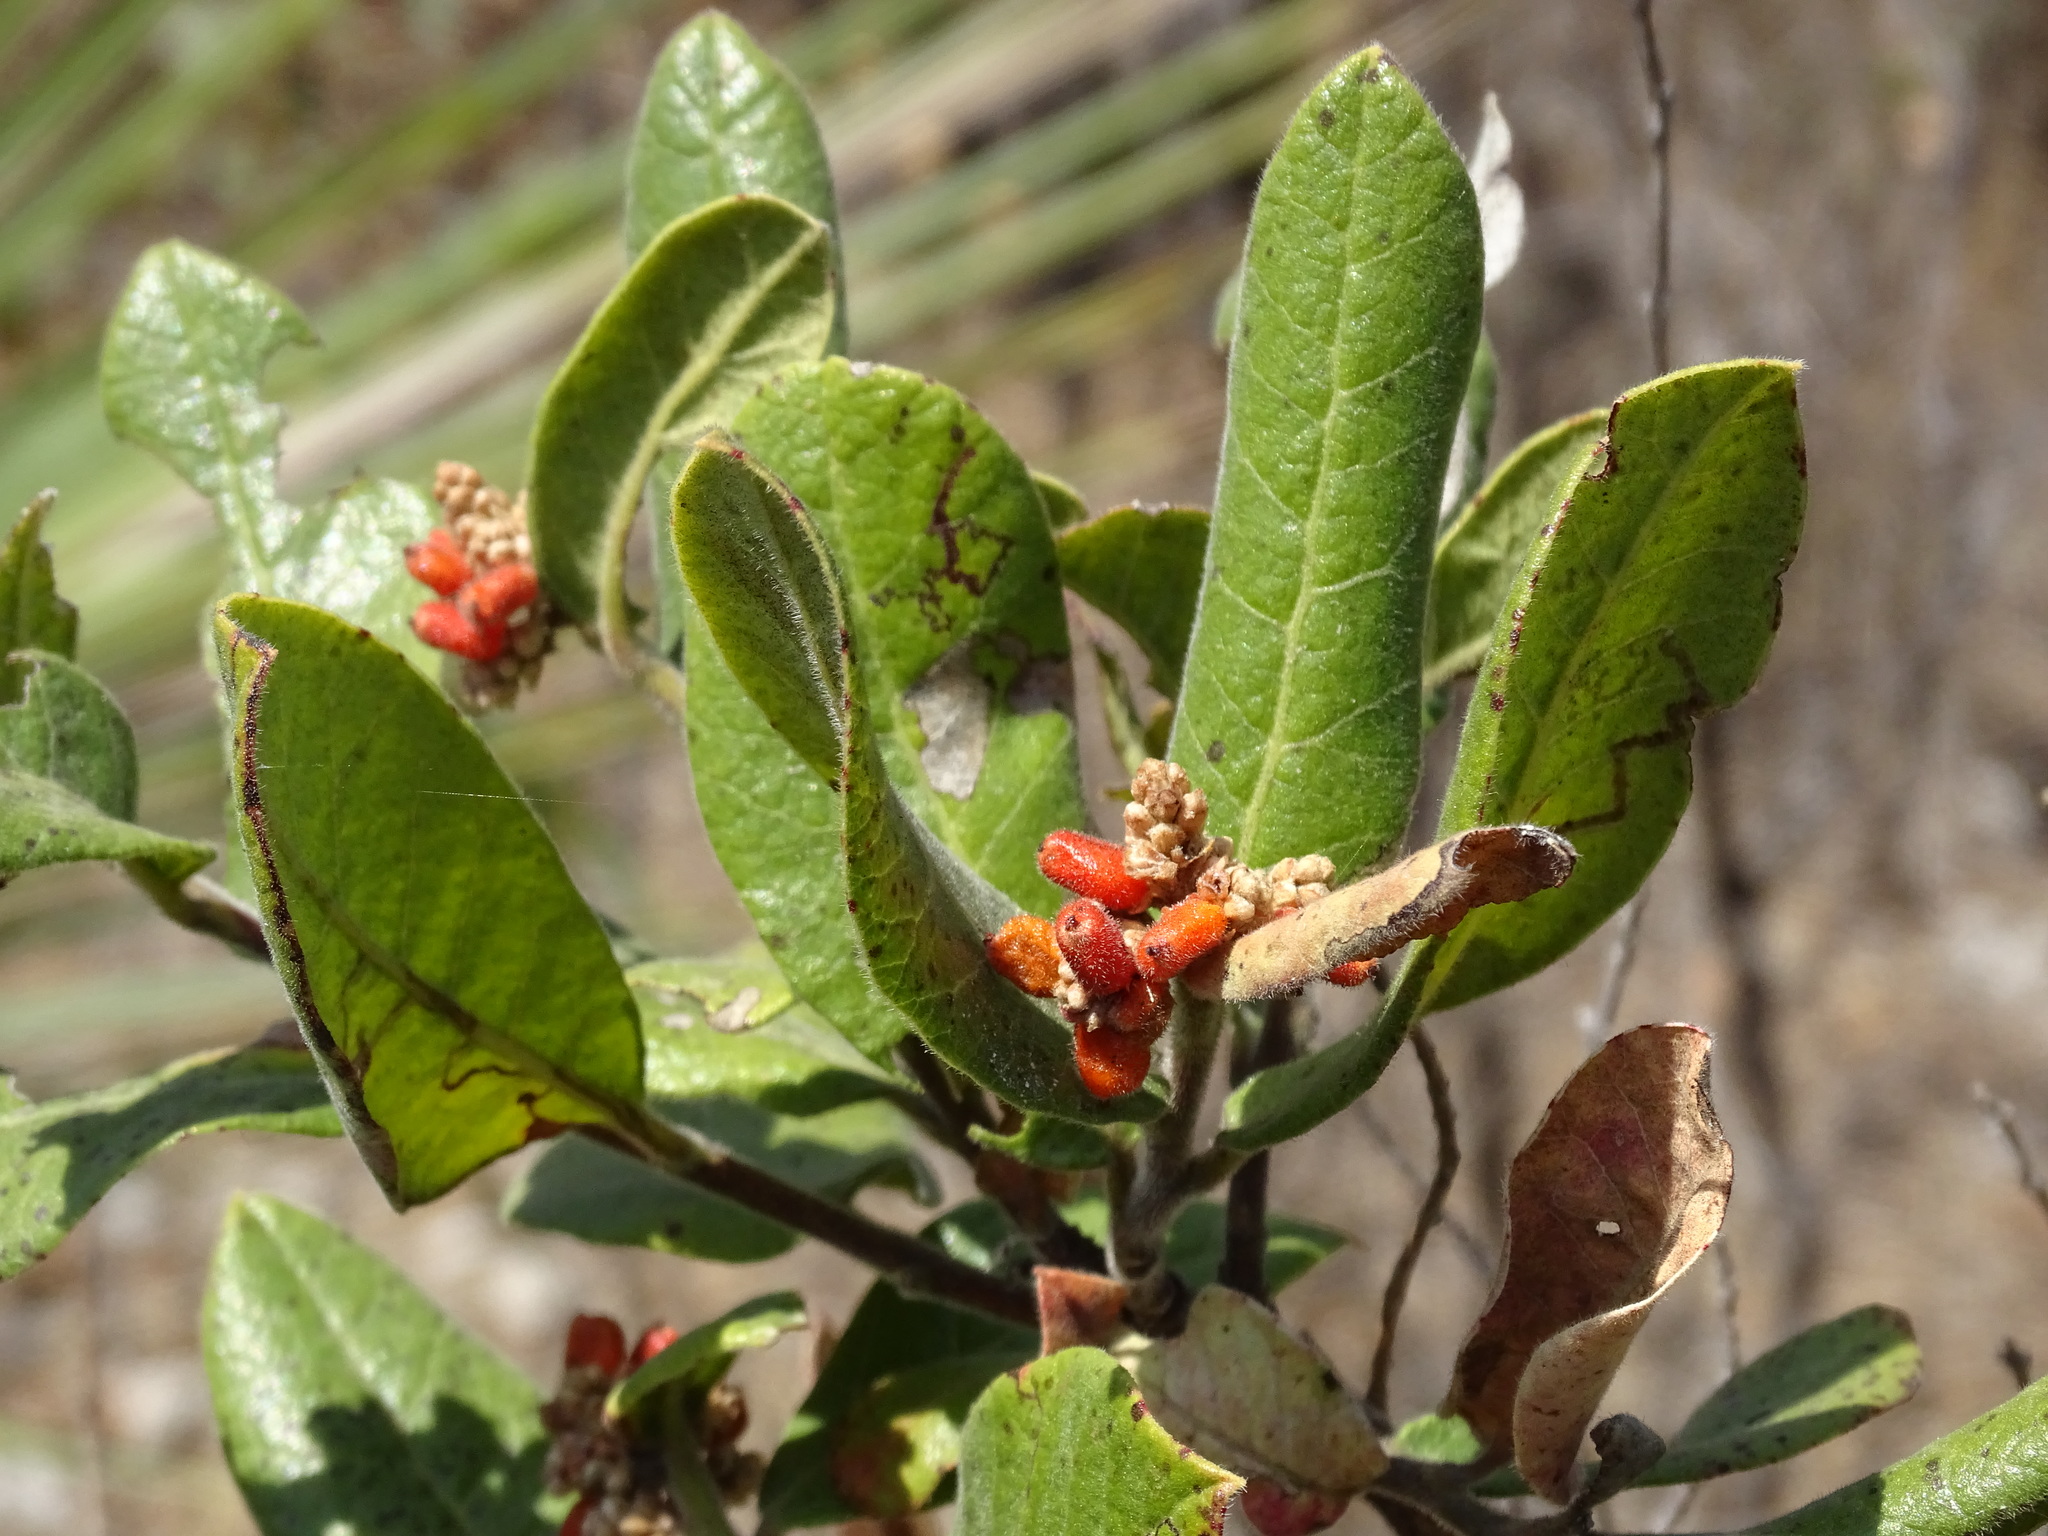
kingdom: Plantae
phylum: Tracheophyta
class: Magnoliopsida
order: Sapindales
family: Anacardiaceae
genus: Rhus
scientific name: Rhus standleyi
